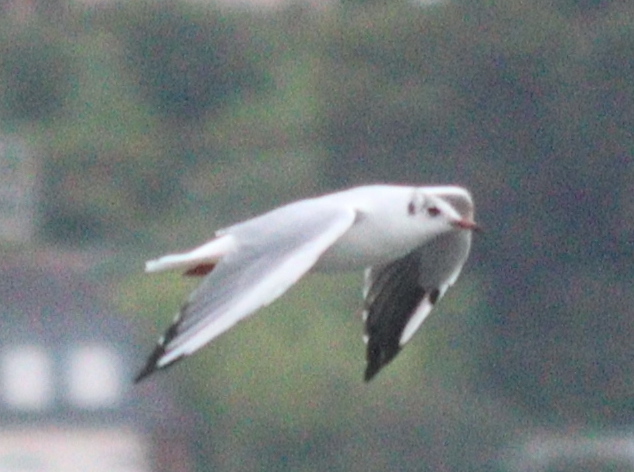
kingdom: Animalia
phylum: Chordata
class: Aves
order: Charadriiformes
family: Laridae
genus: Chroicocephalus
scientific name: Chroicocephalus ridibundus
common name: Black-headed gull
